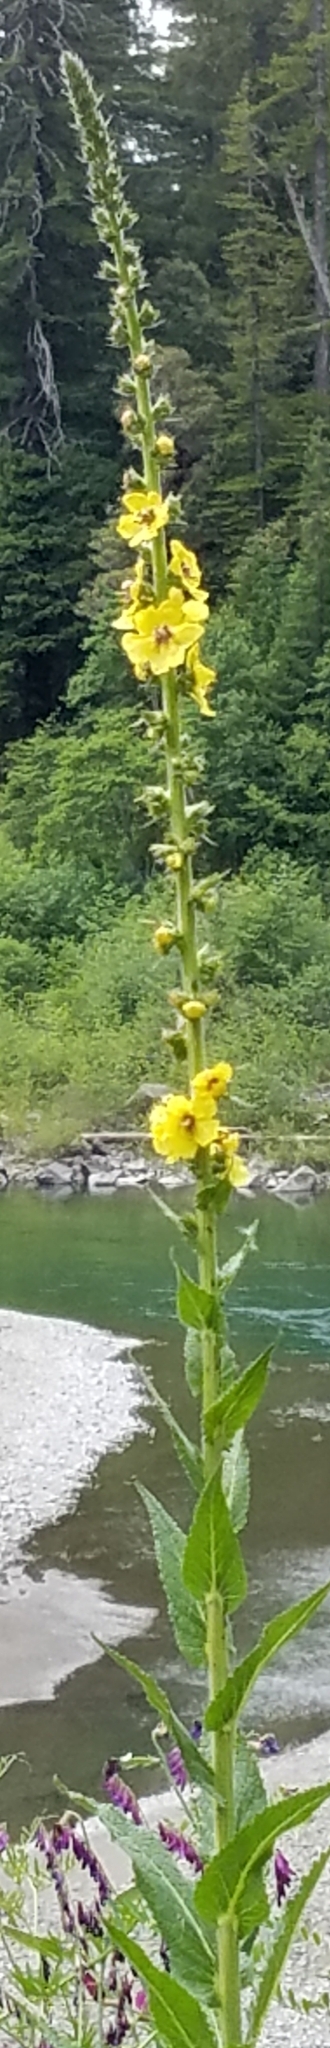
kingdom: Plantae
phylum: Tracheophyta
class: Magnoliopsida
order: Lamiales
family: Scrophulariaceae
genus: Verbascum
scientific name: Verbascum virgatum
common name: Twiggy mullein
